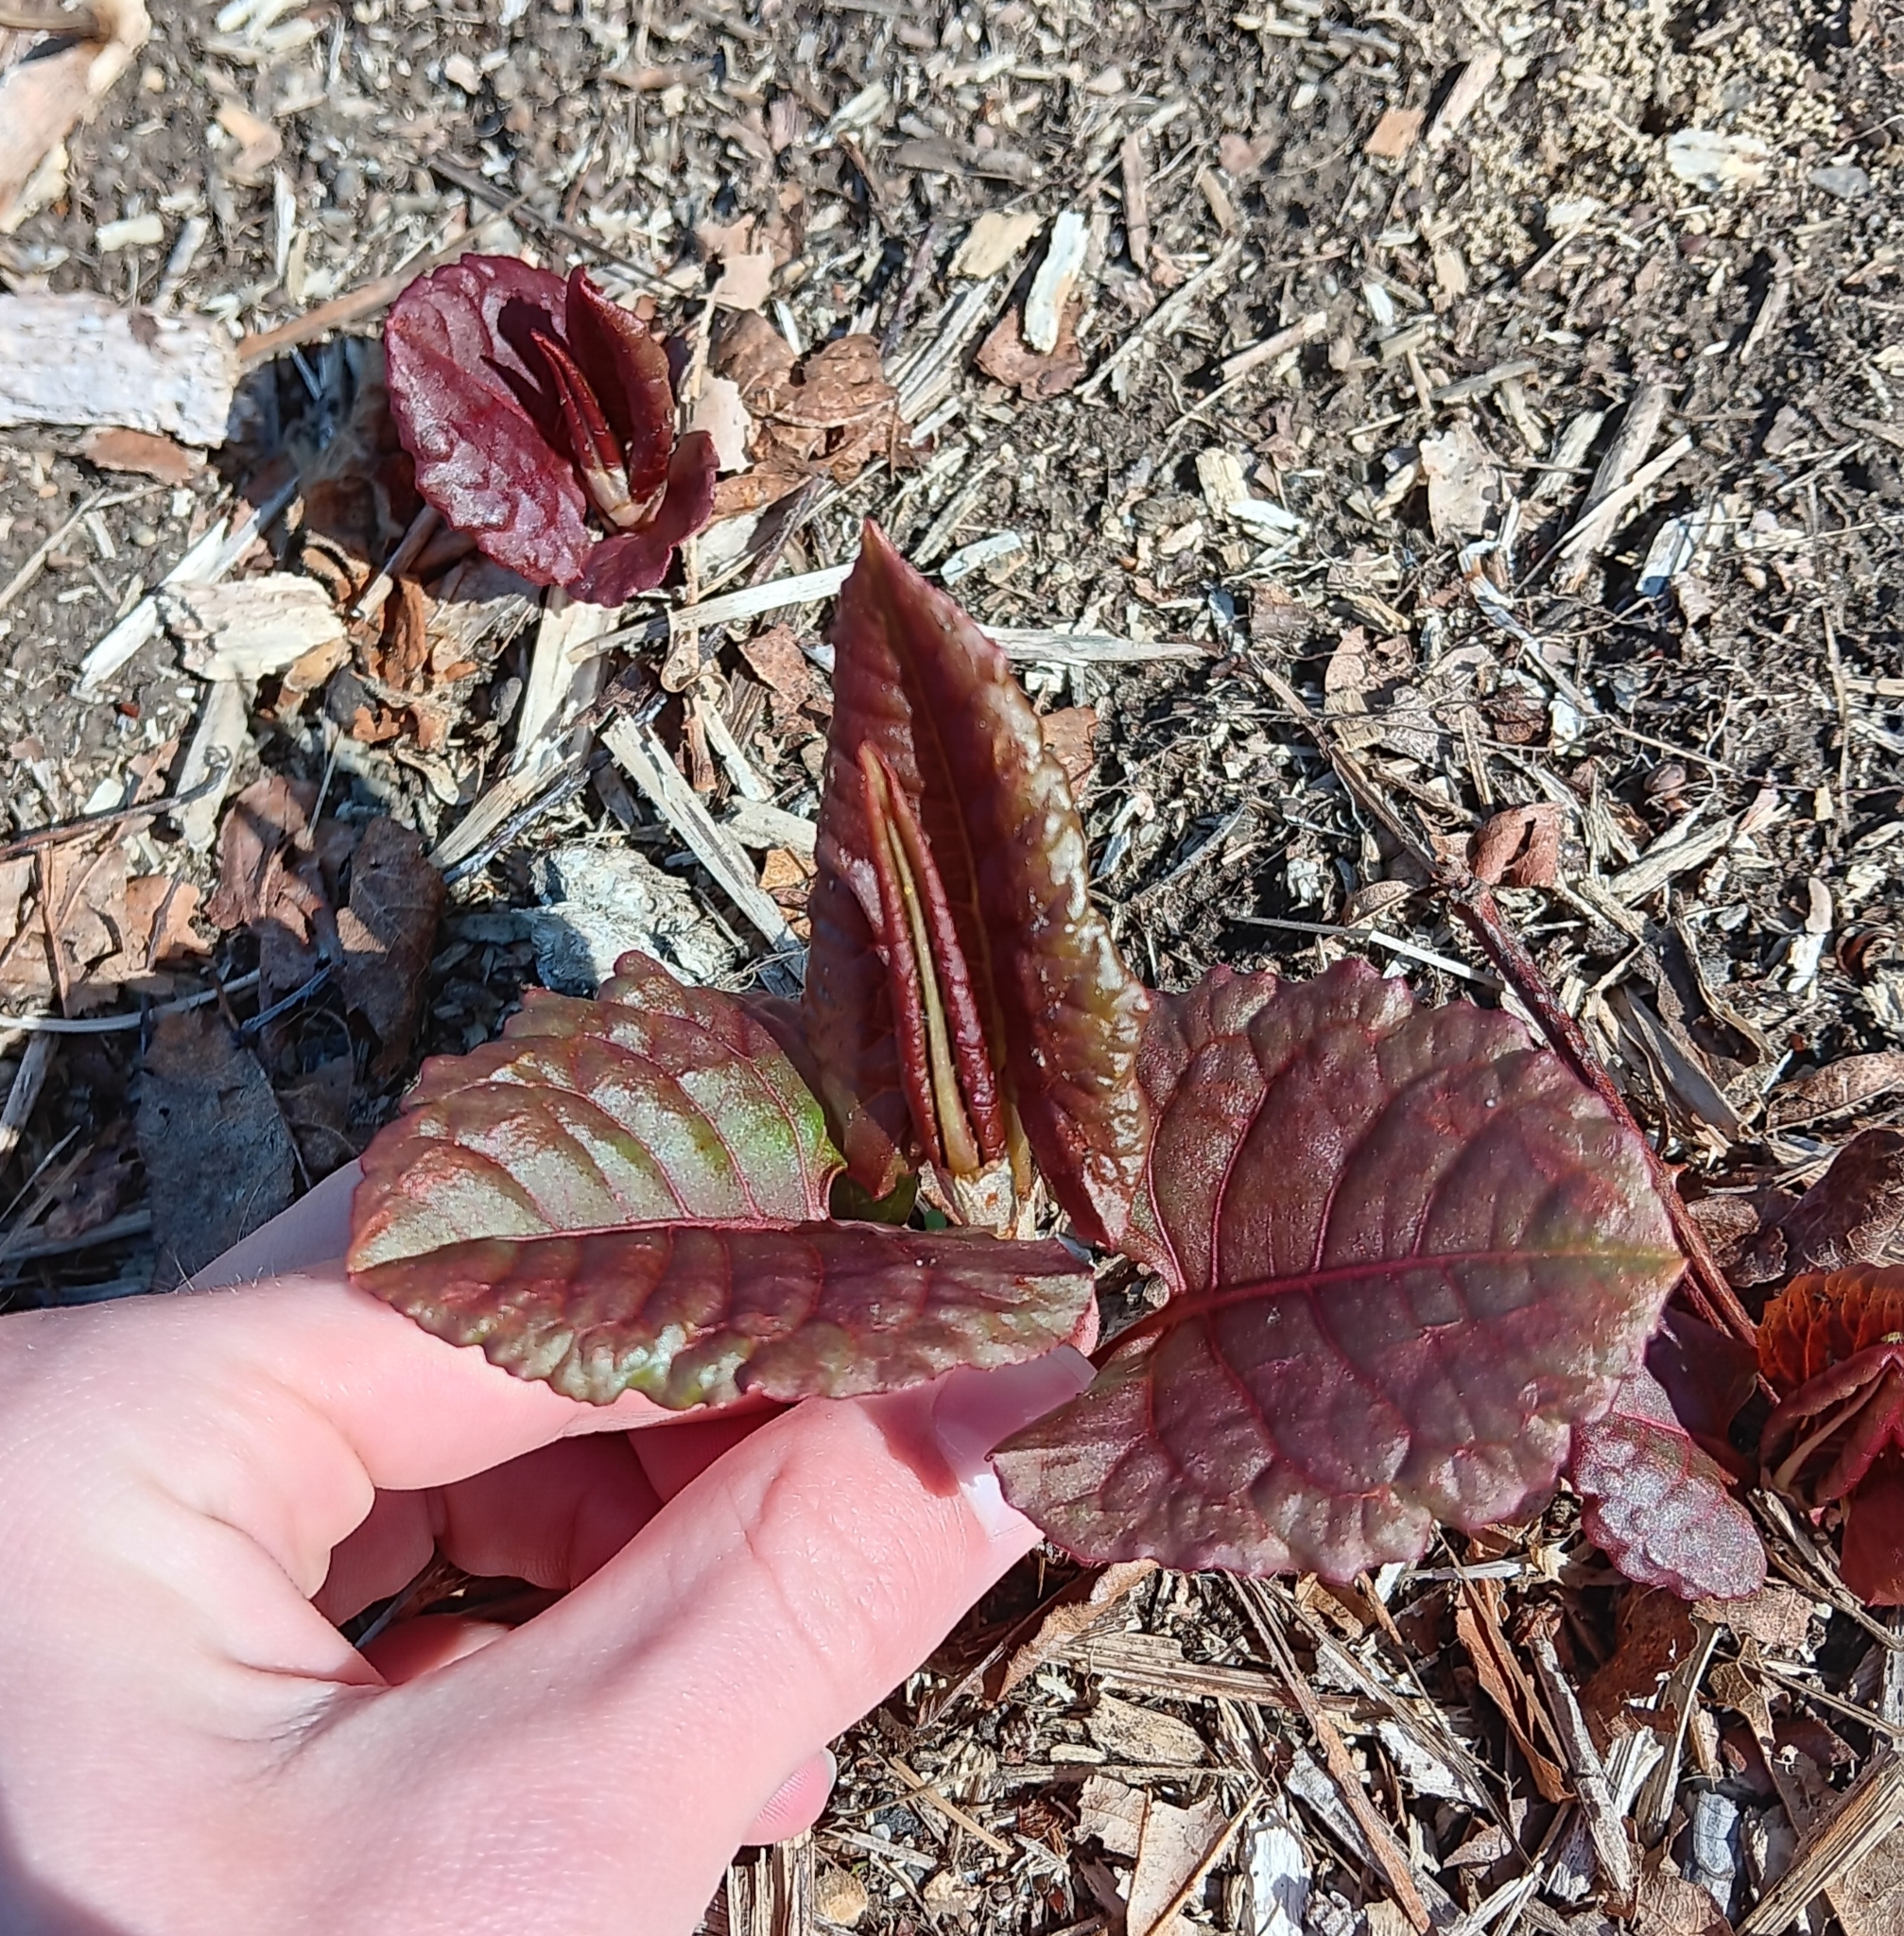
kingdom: Plantae
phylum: Tracheophyta
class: Magnoliopsida
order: Caryophyllales
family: Polygonaceae
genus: Reynoutria
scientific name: Reynoutria japonica
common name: Japanese knotweed
